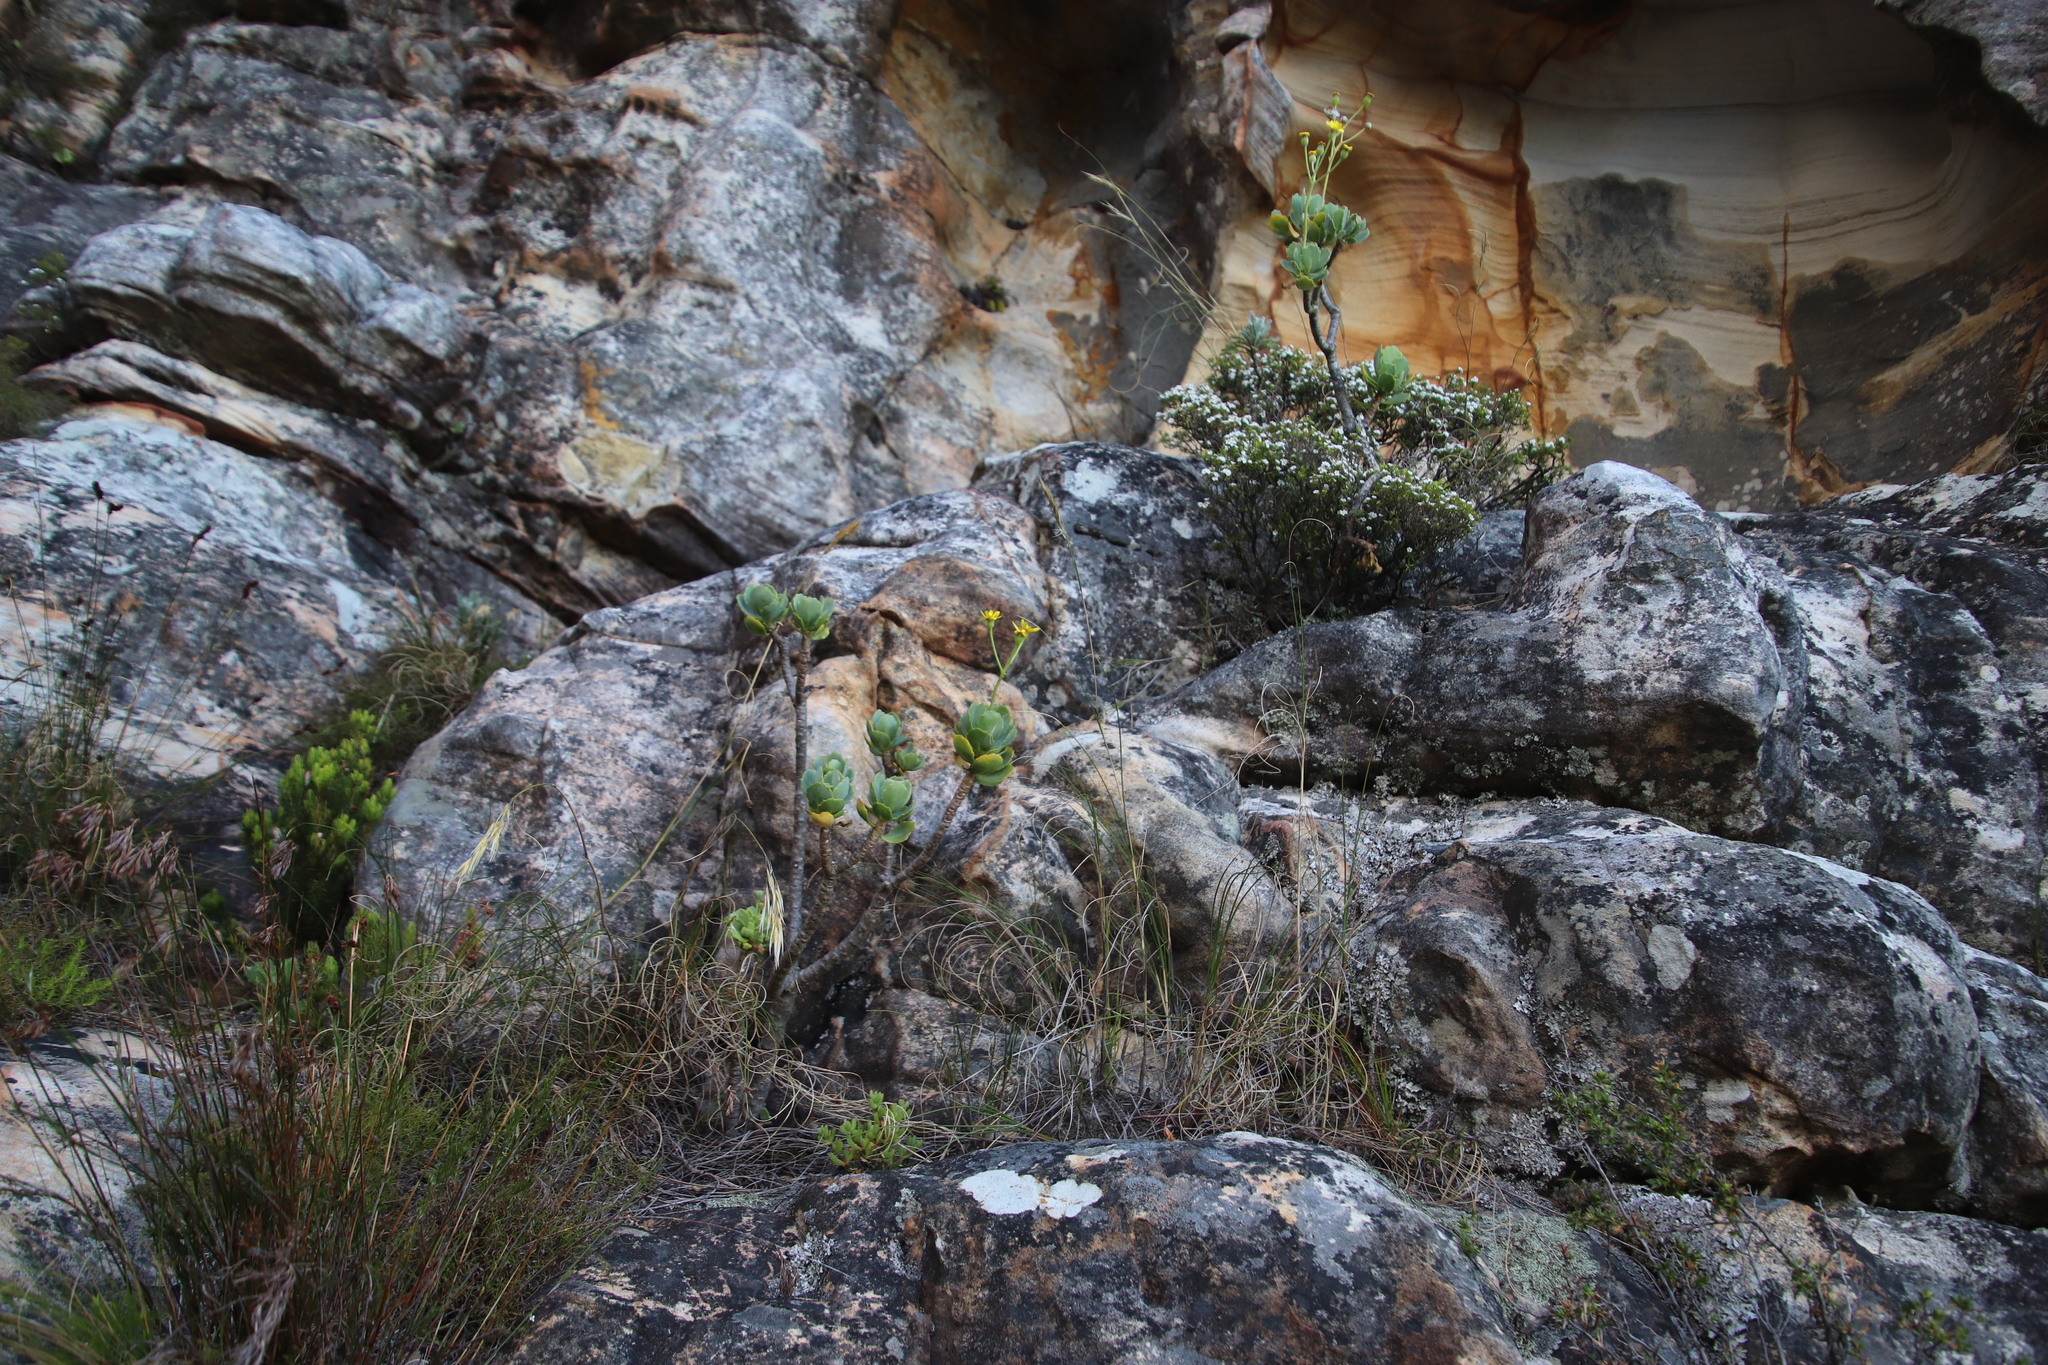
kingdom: Plantae
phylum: Tracheophyta
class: Magnoliopsida
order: Asterales
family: Asteraceae
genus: Othonna
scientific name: Othonna dentata
